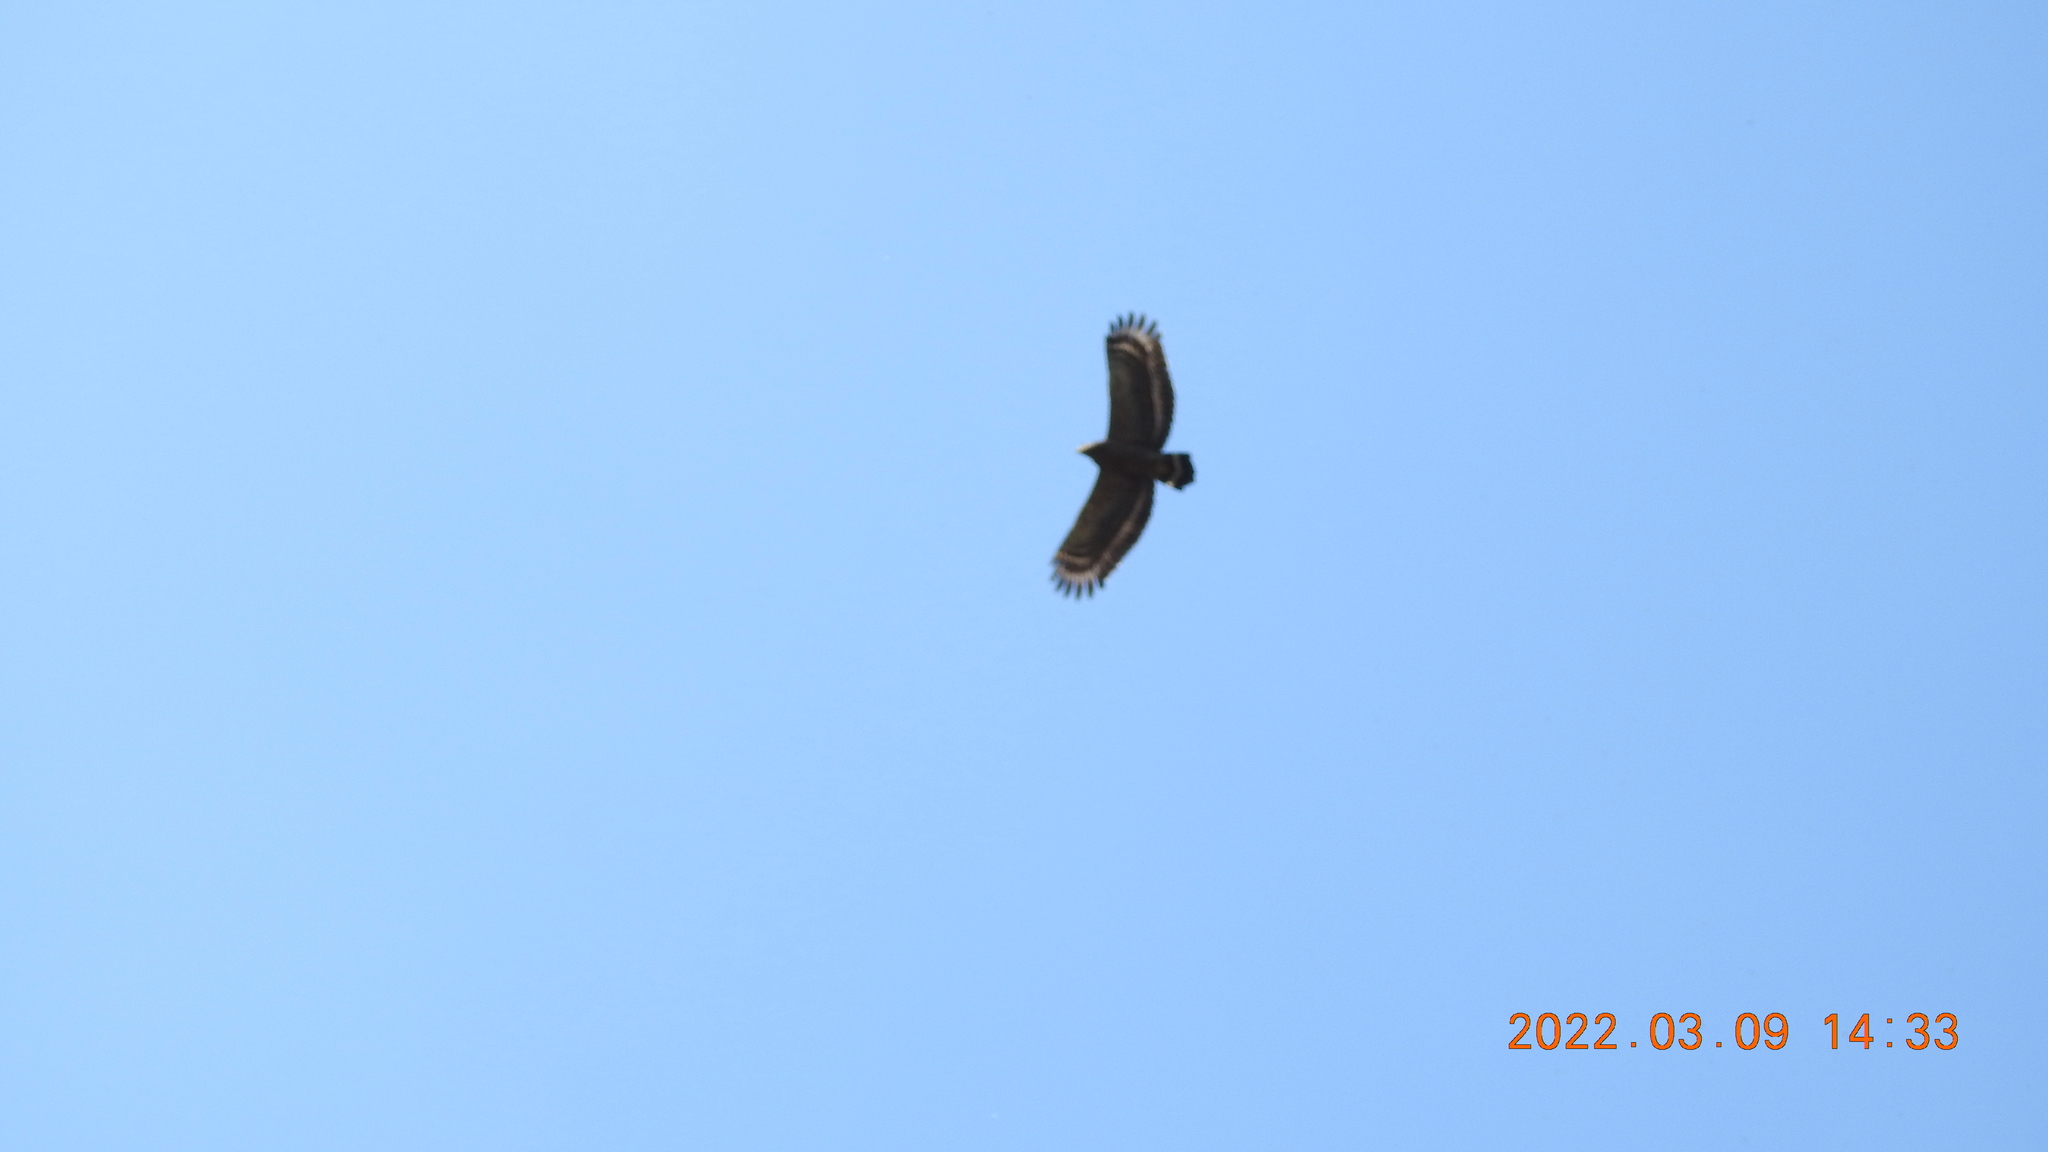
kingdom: Animalia
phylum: Chordata
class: Aves
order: Accipitriformes
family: Accipitridae
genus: Spilornis
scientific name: Spilornis cheela
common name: Crested serpent eagle
